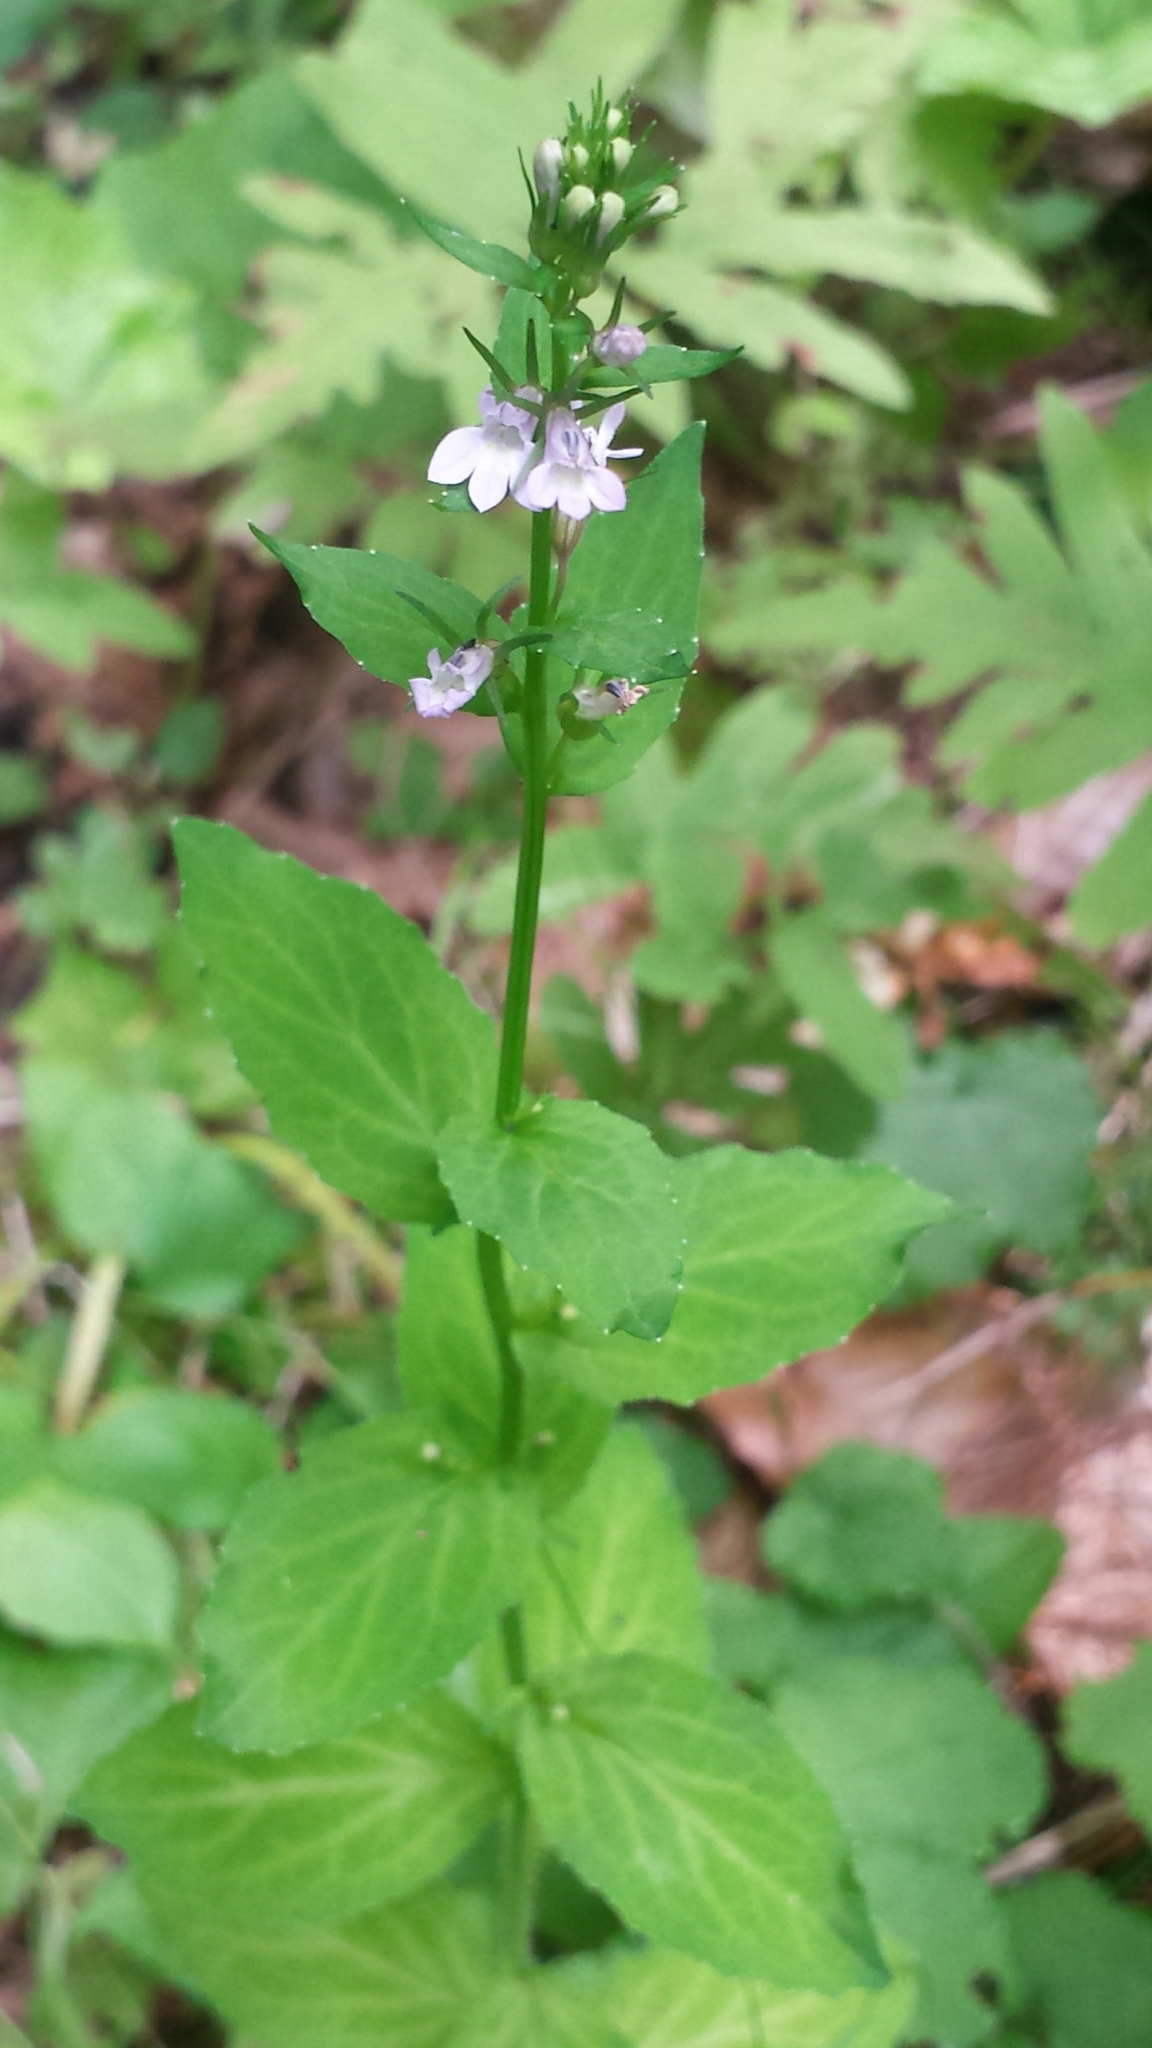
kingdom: Plantae
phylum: Tracheophyta
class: Magnoliopsida
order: Asterales
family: Campanulaceae
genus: Lobelia
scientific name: Lobelia inflata
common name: Indian tobacco
